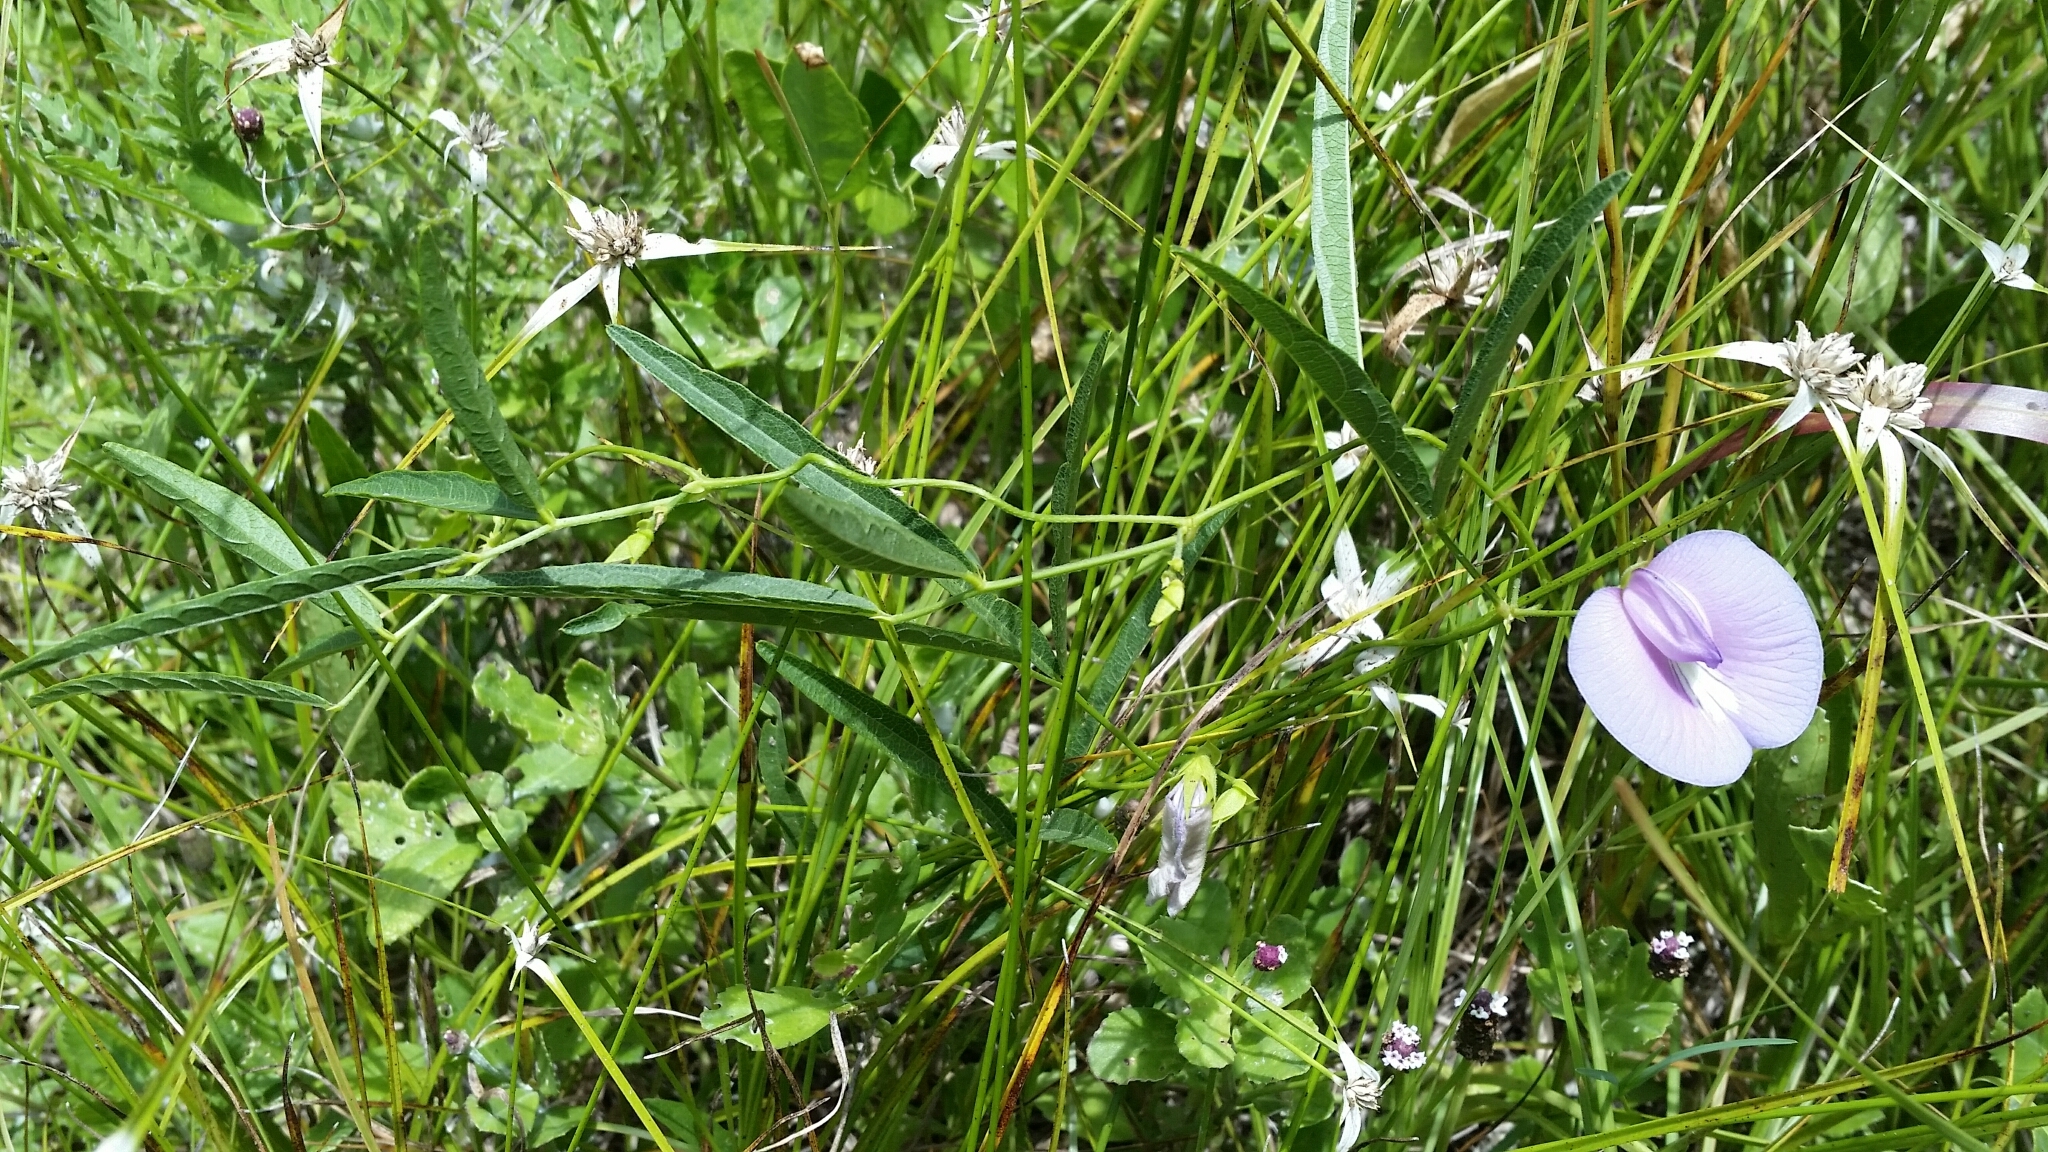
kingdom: Plantae
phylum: Tracheophyta
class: Magnoliopsida
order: Fabales
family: Fabaceae
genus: Centrosema
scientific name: Centrosema virginianum
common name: Butterfly-pea
